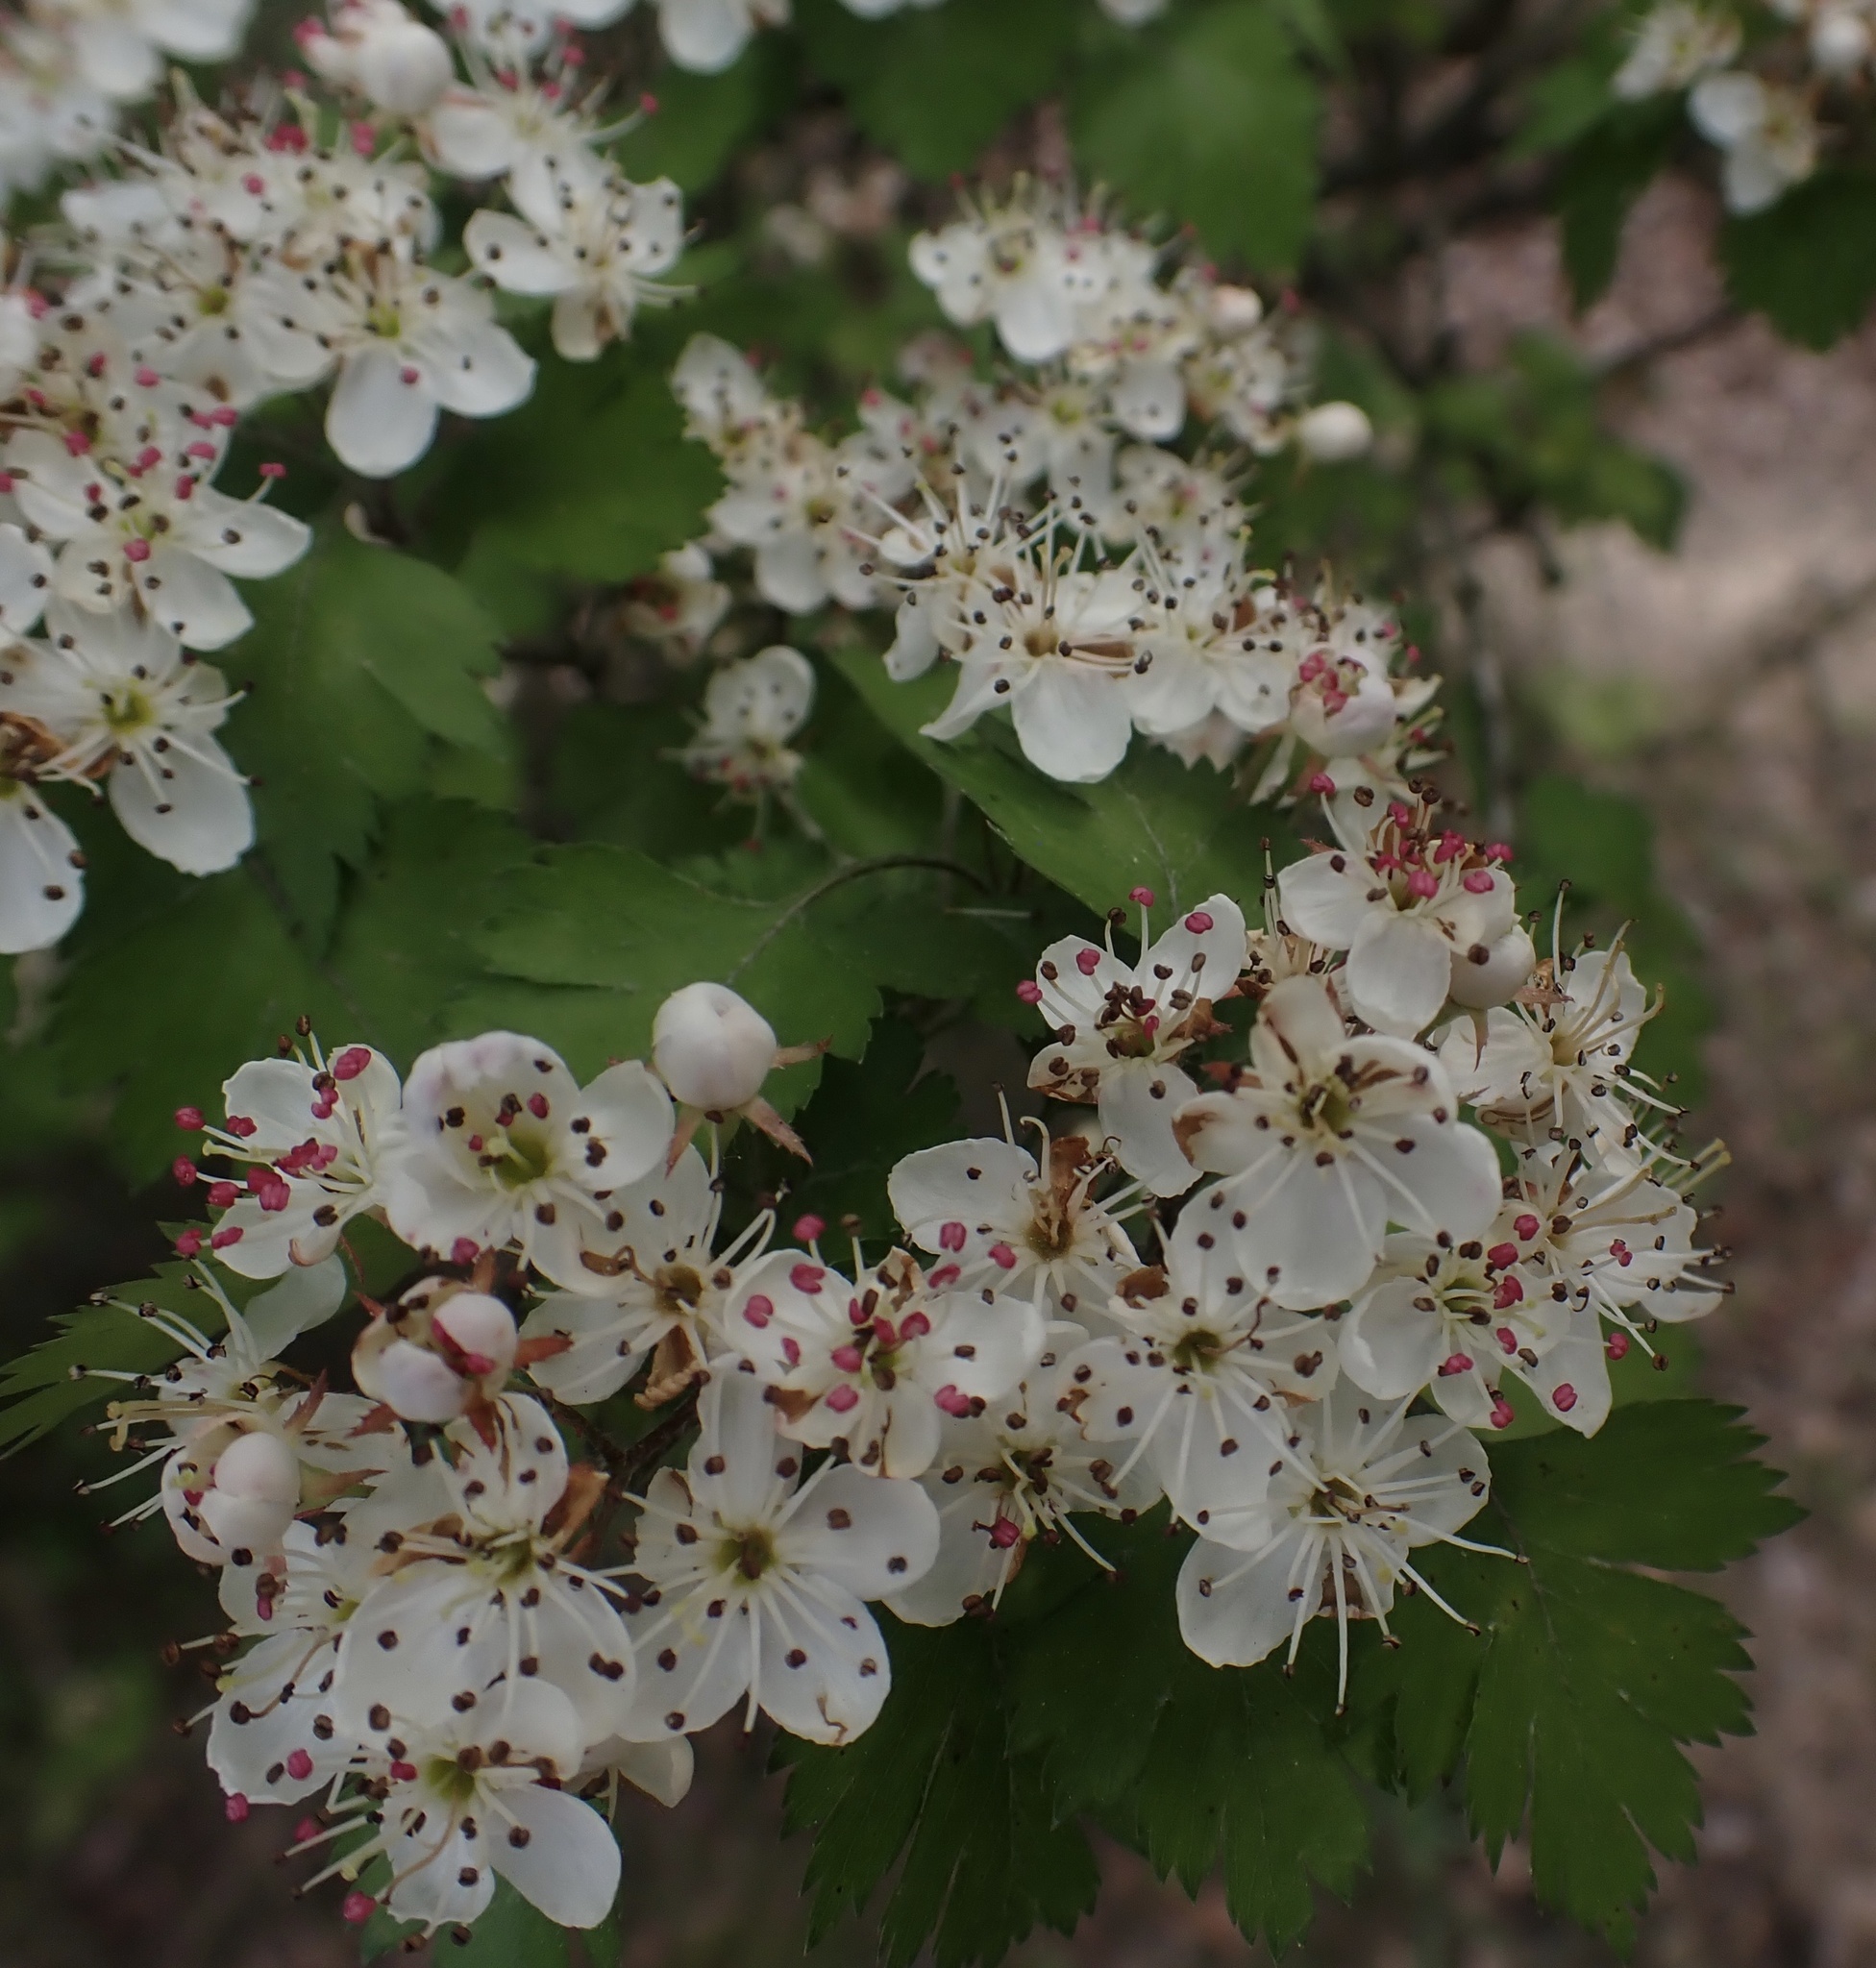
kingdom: Plantae
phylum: Tracheophyta
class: Magnoliopsida
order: Rosales
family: Rosaceae
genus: Crataegus
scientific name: Crataegus marshallii
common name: Parsley-hawthorn
